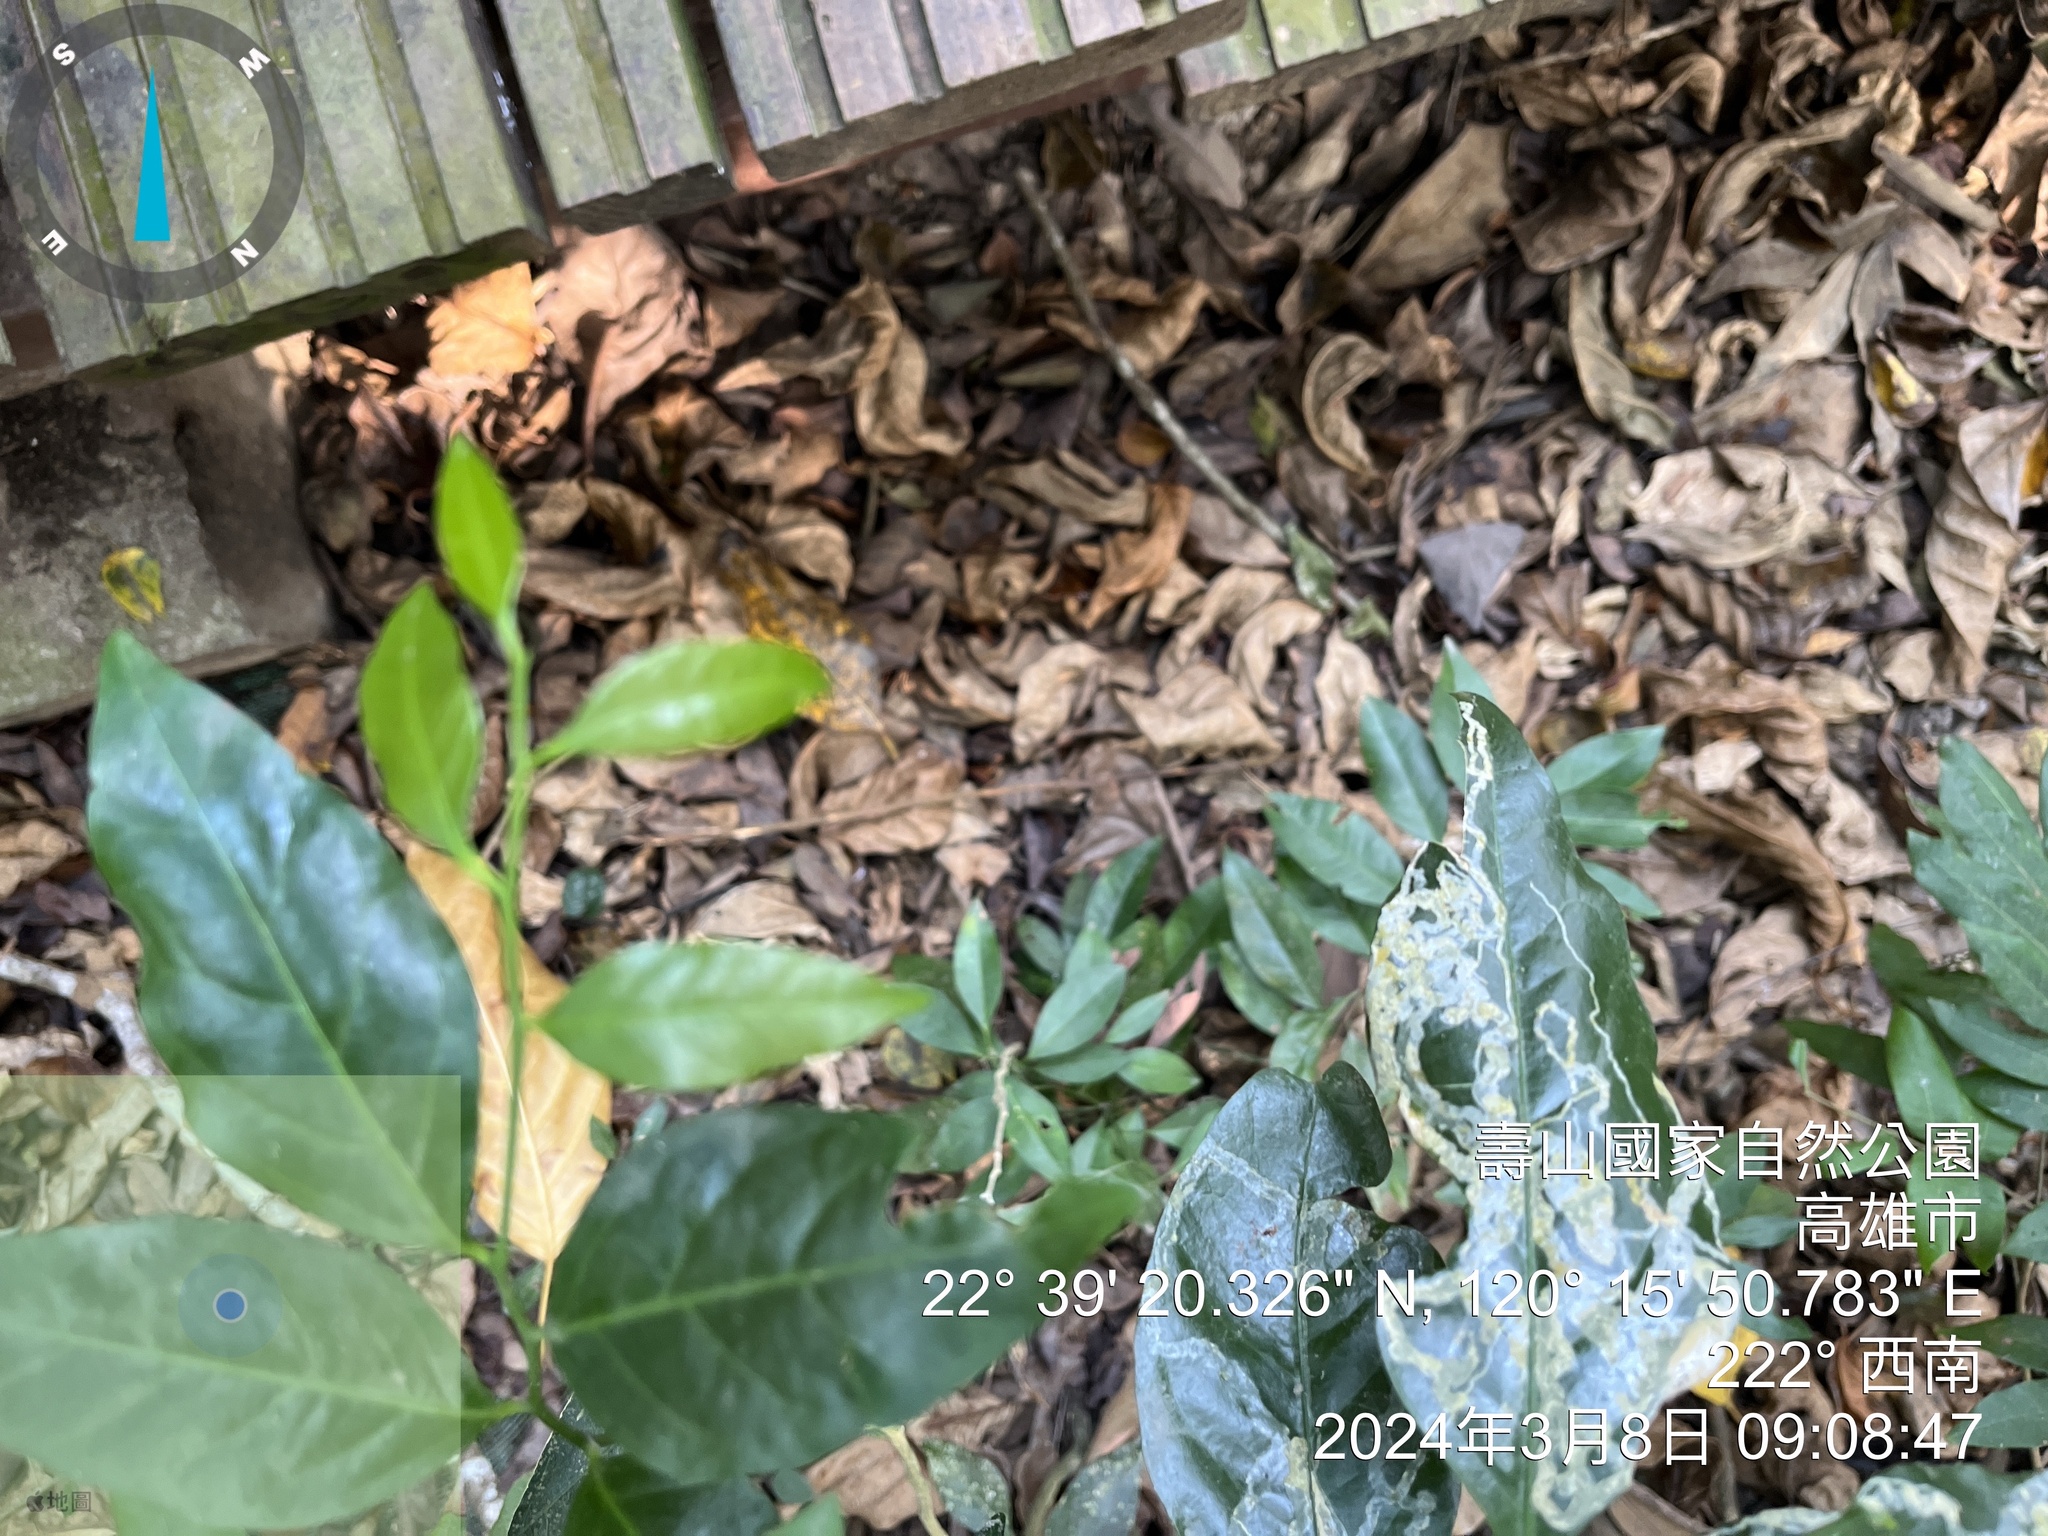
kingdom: Plantae
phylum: Tracheophyta
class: Magnoliopsida
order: Santalales
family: Opiliaceae
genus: Champereia
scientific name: Champereia manillana
